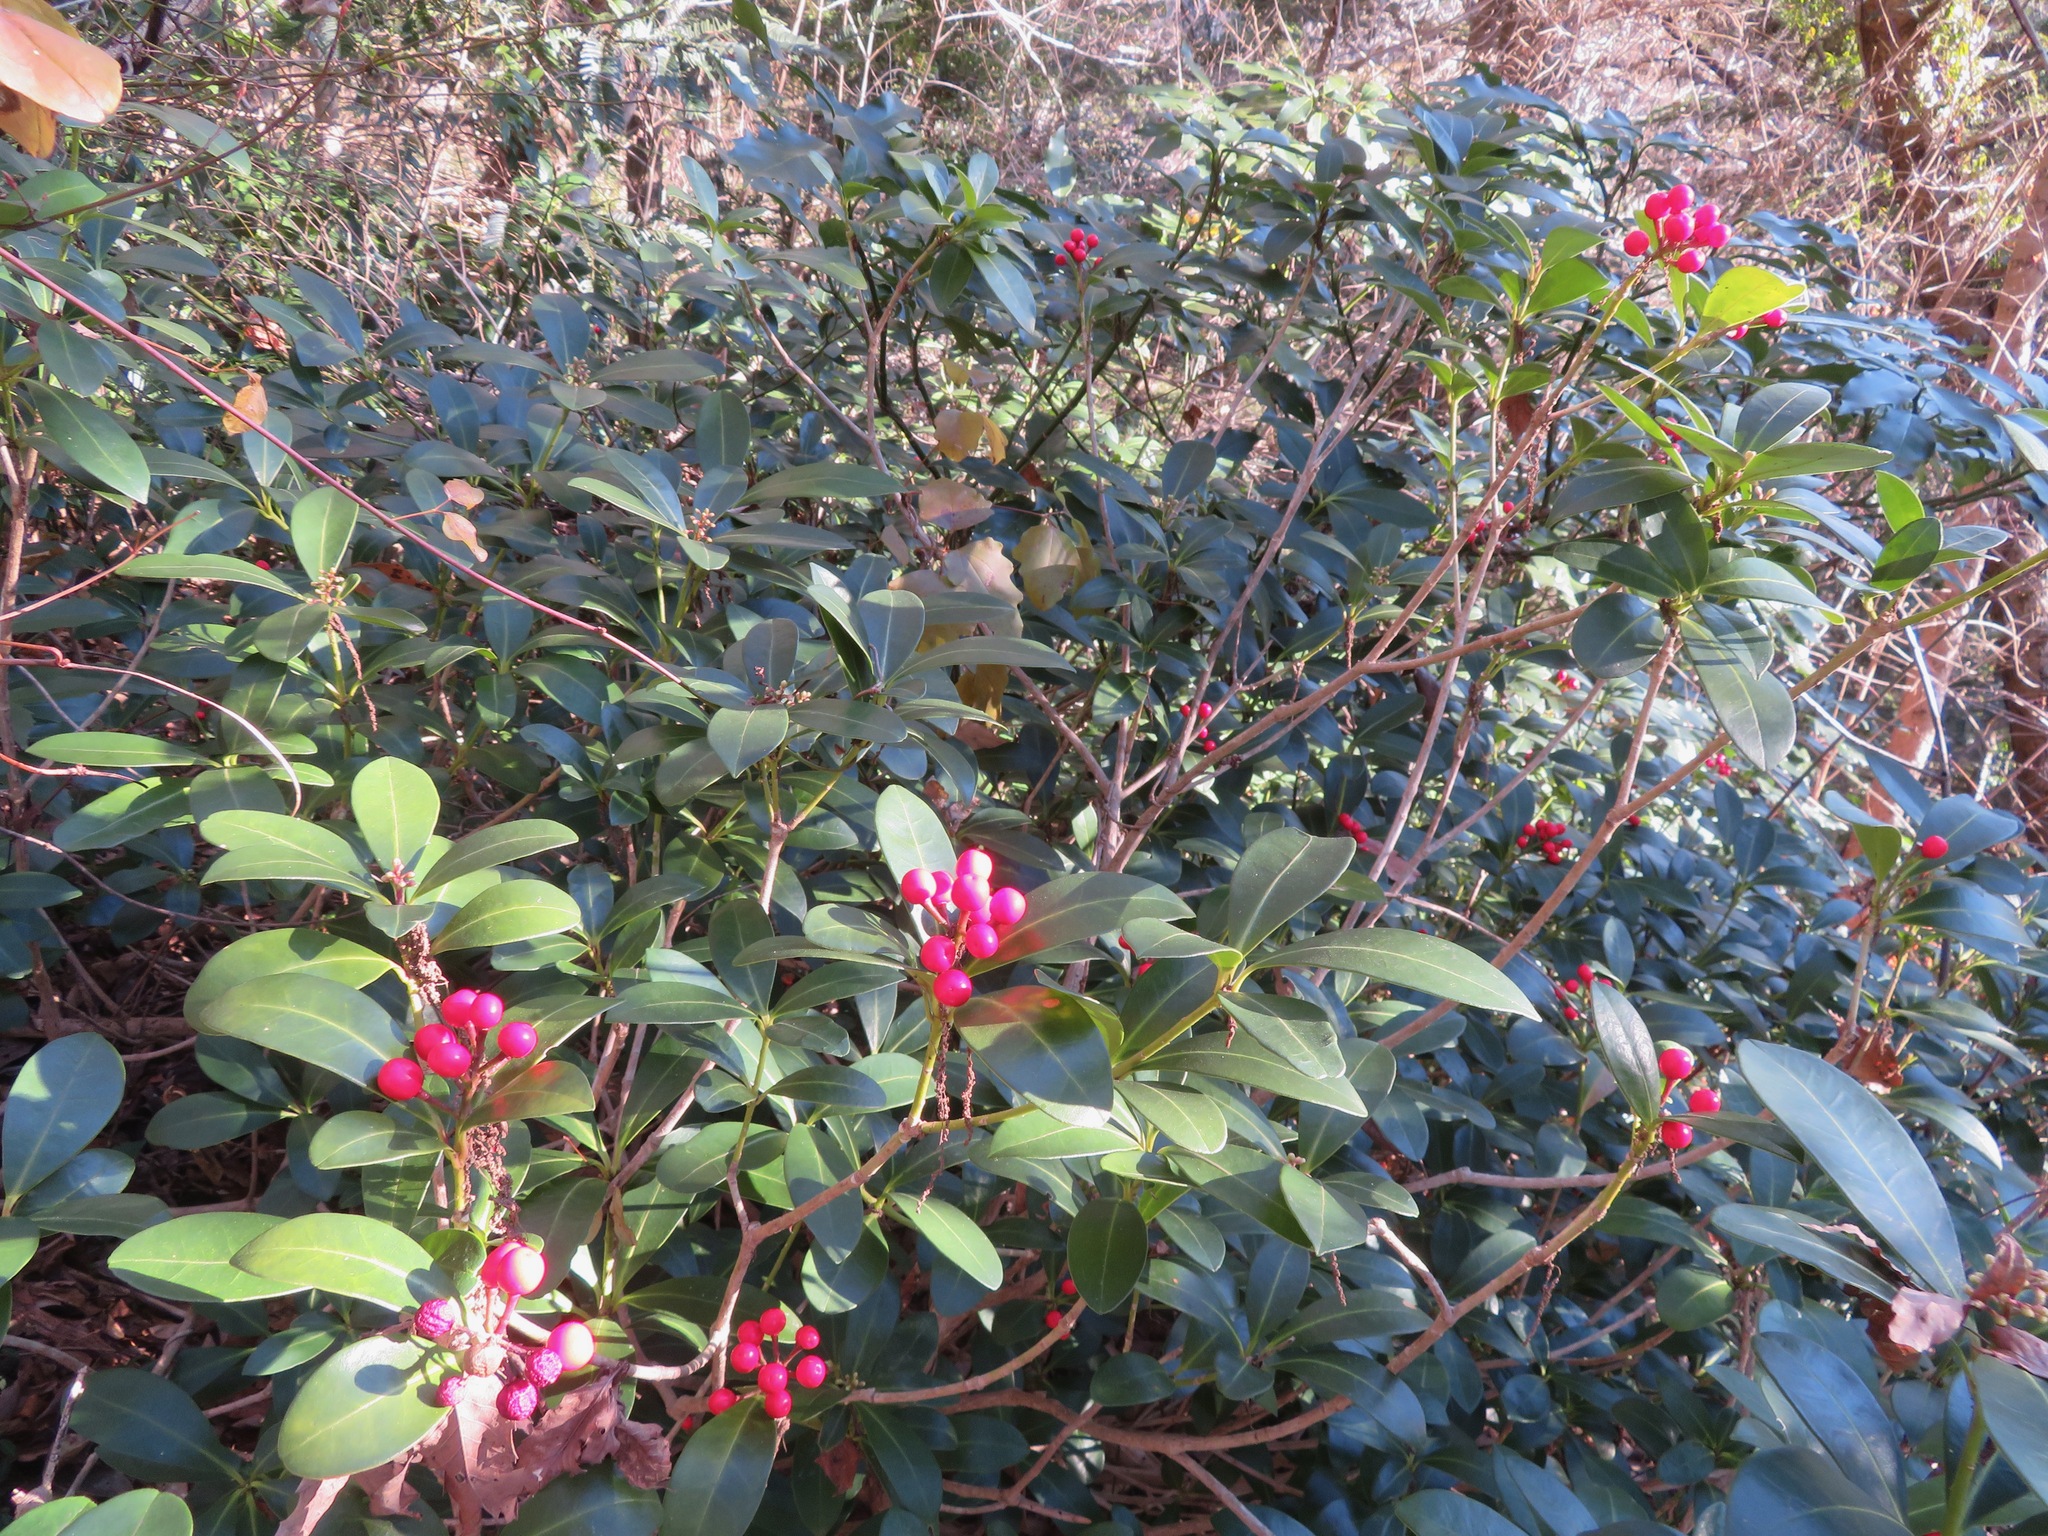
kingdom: Plantae
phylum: Tracheophyta
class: Magnoliopsida
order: Sapindales
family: Rutaceae
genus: Skimmia
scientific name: Skimmia japonica
